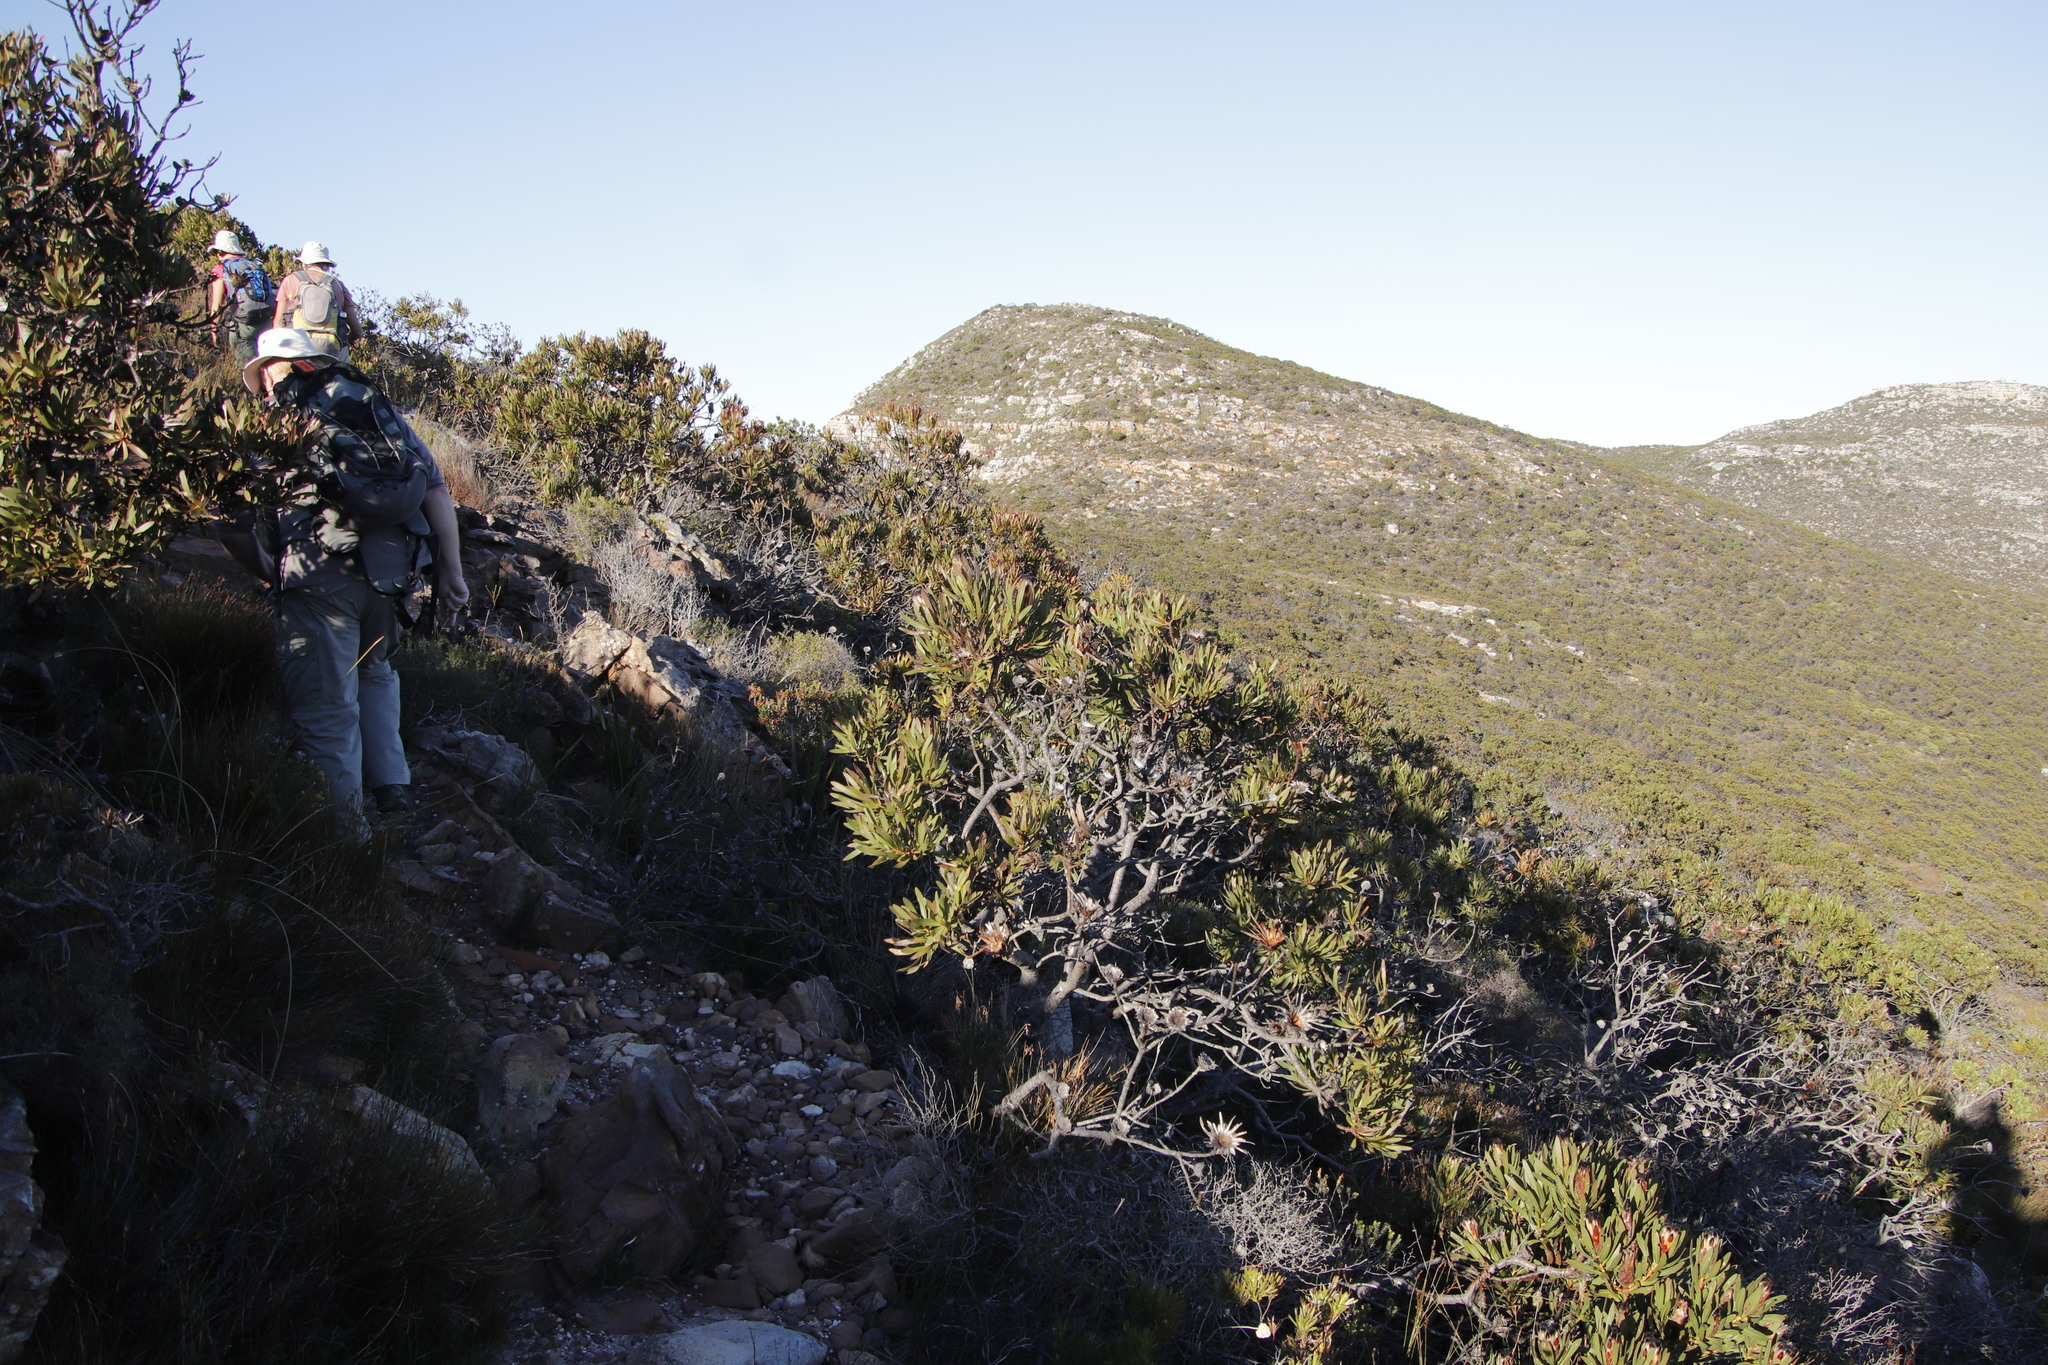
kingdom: Plantae
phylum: Tracheophyta
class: Magnoliopsida
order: Proteales
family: Proteaceae
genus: Protea
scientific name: Protea lepidocarpodendron
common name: Black-bearded protea
